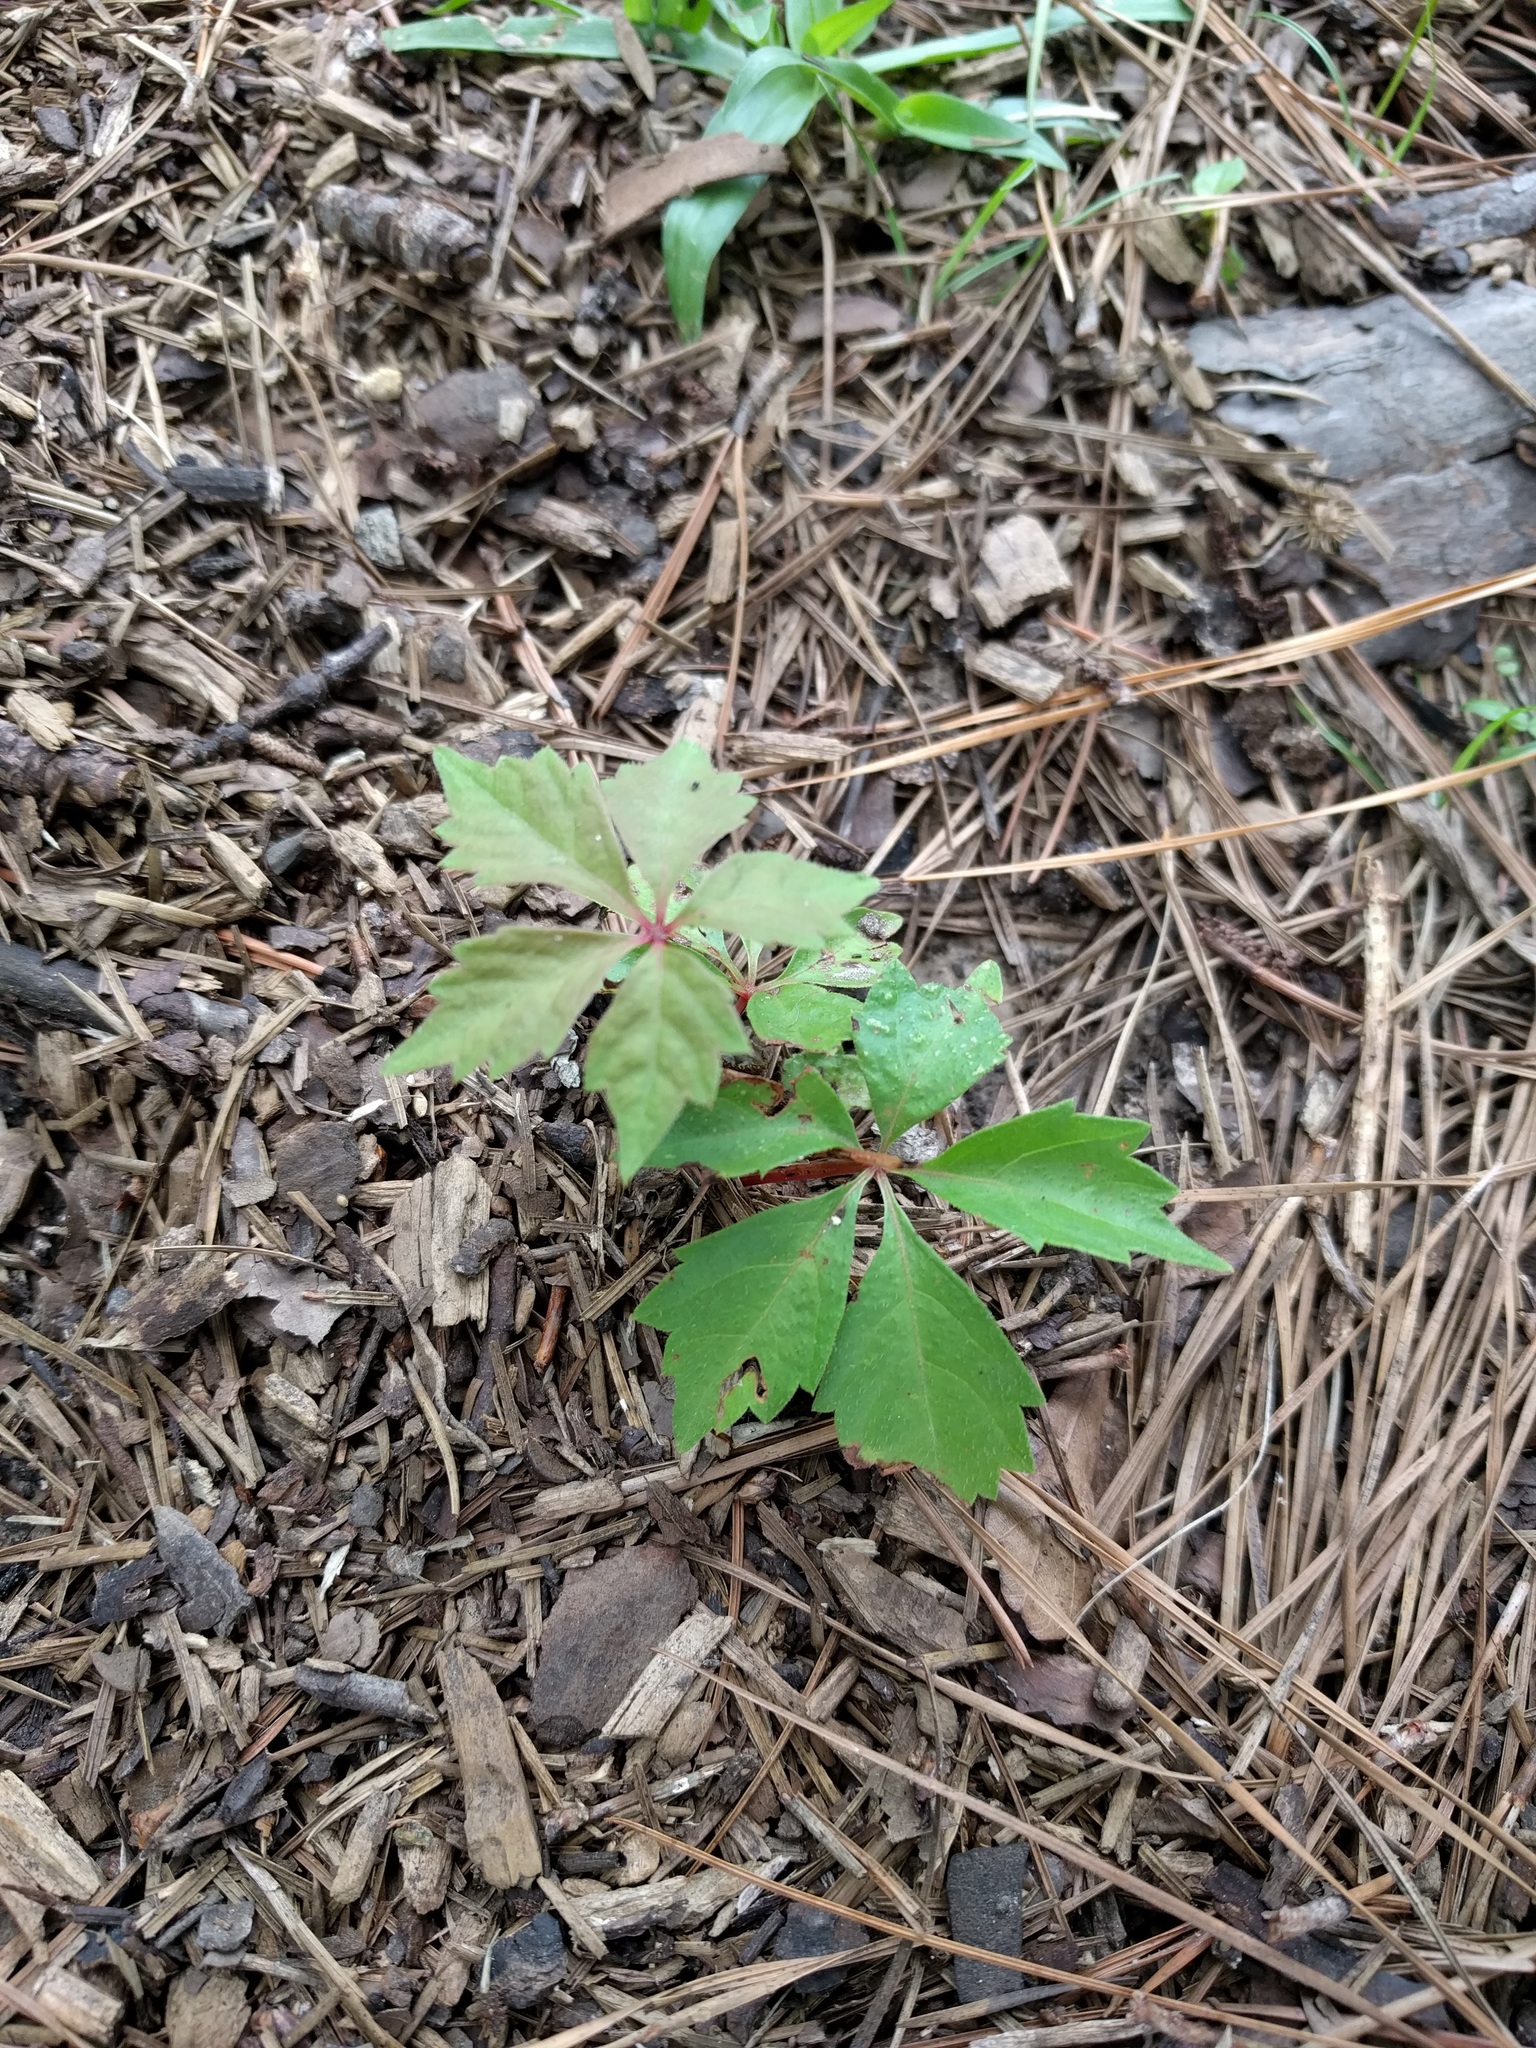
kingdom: Plantae
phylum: Tracheophyta
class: Magnoliopsida
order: Vitales
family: Vitaceae
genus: Parthenocissus
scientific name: Parthenocissus quinquefolia
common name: Virginia-creeper
